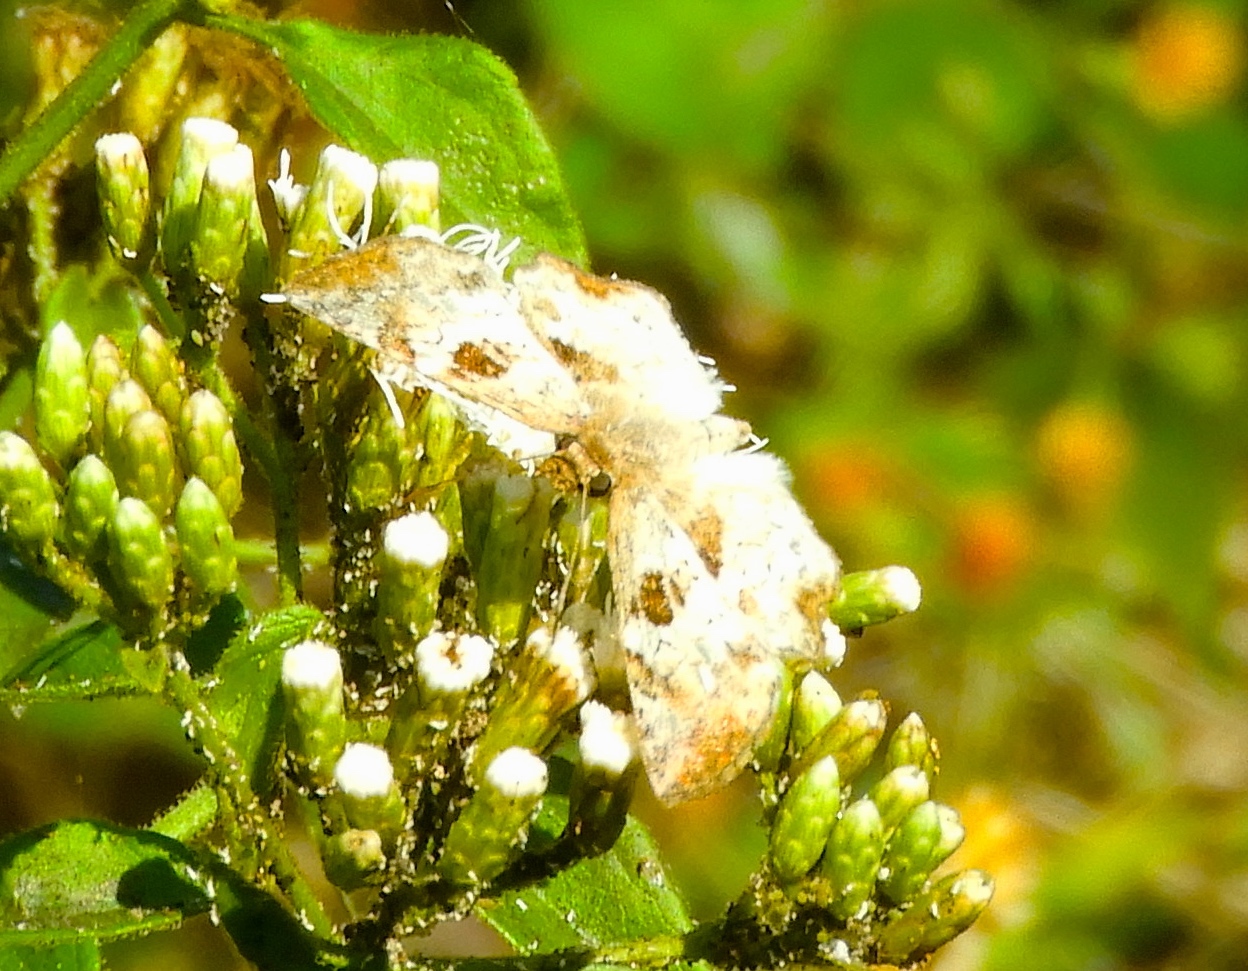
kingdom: Animalia
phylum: Arthropoda
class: Insecta
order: Lepidoptera
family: Hesperiidae
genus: Pyrginae
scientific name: Pyrginae
